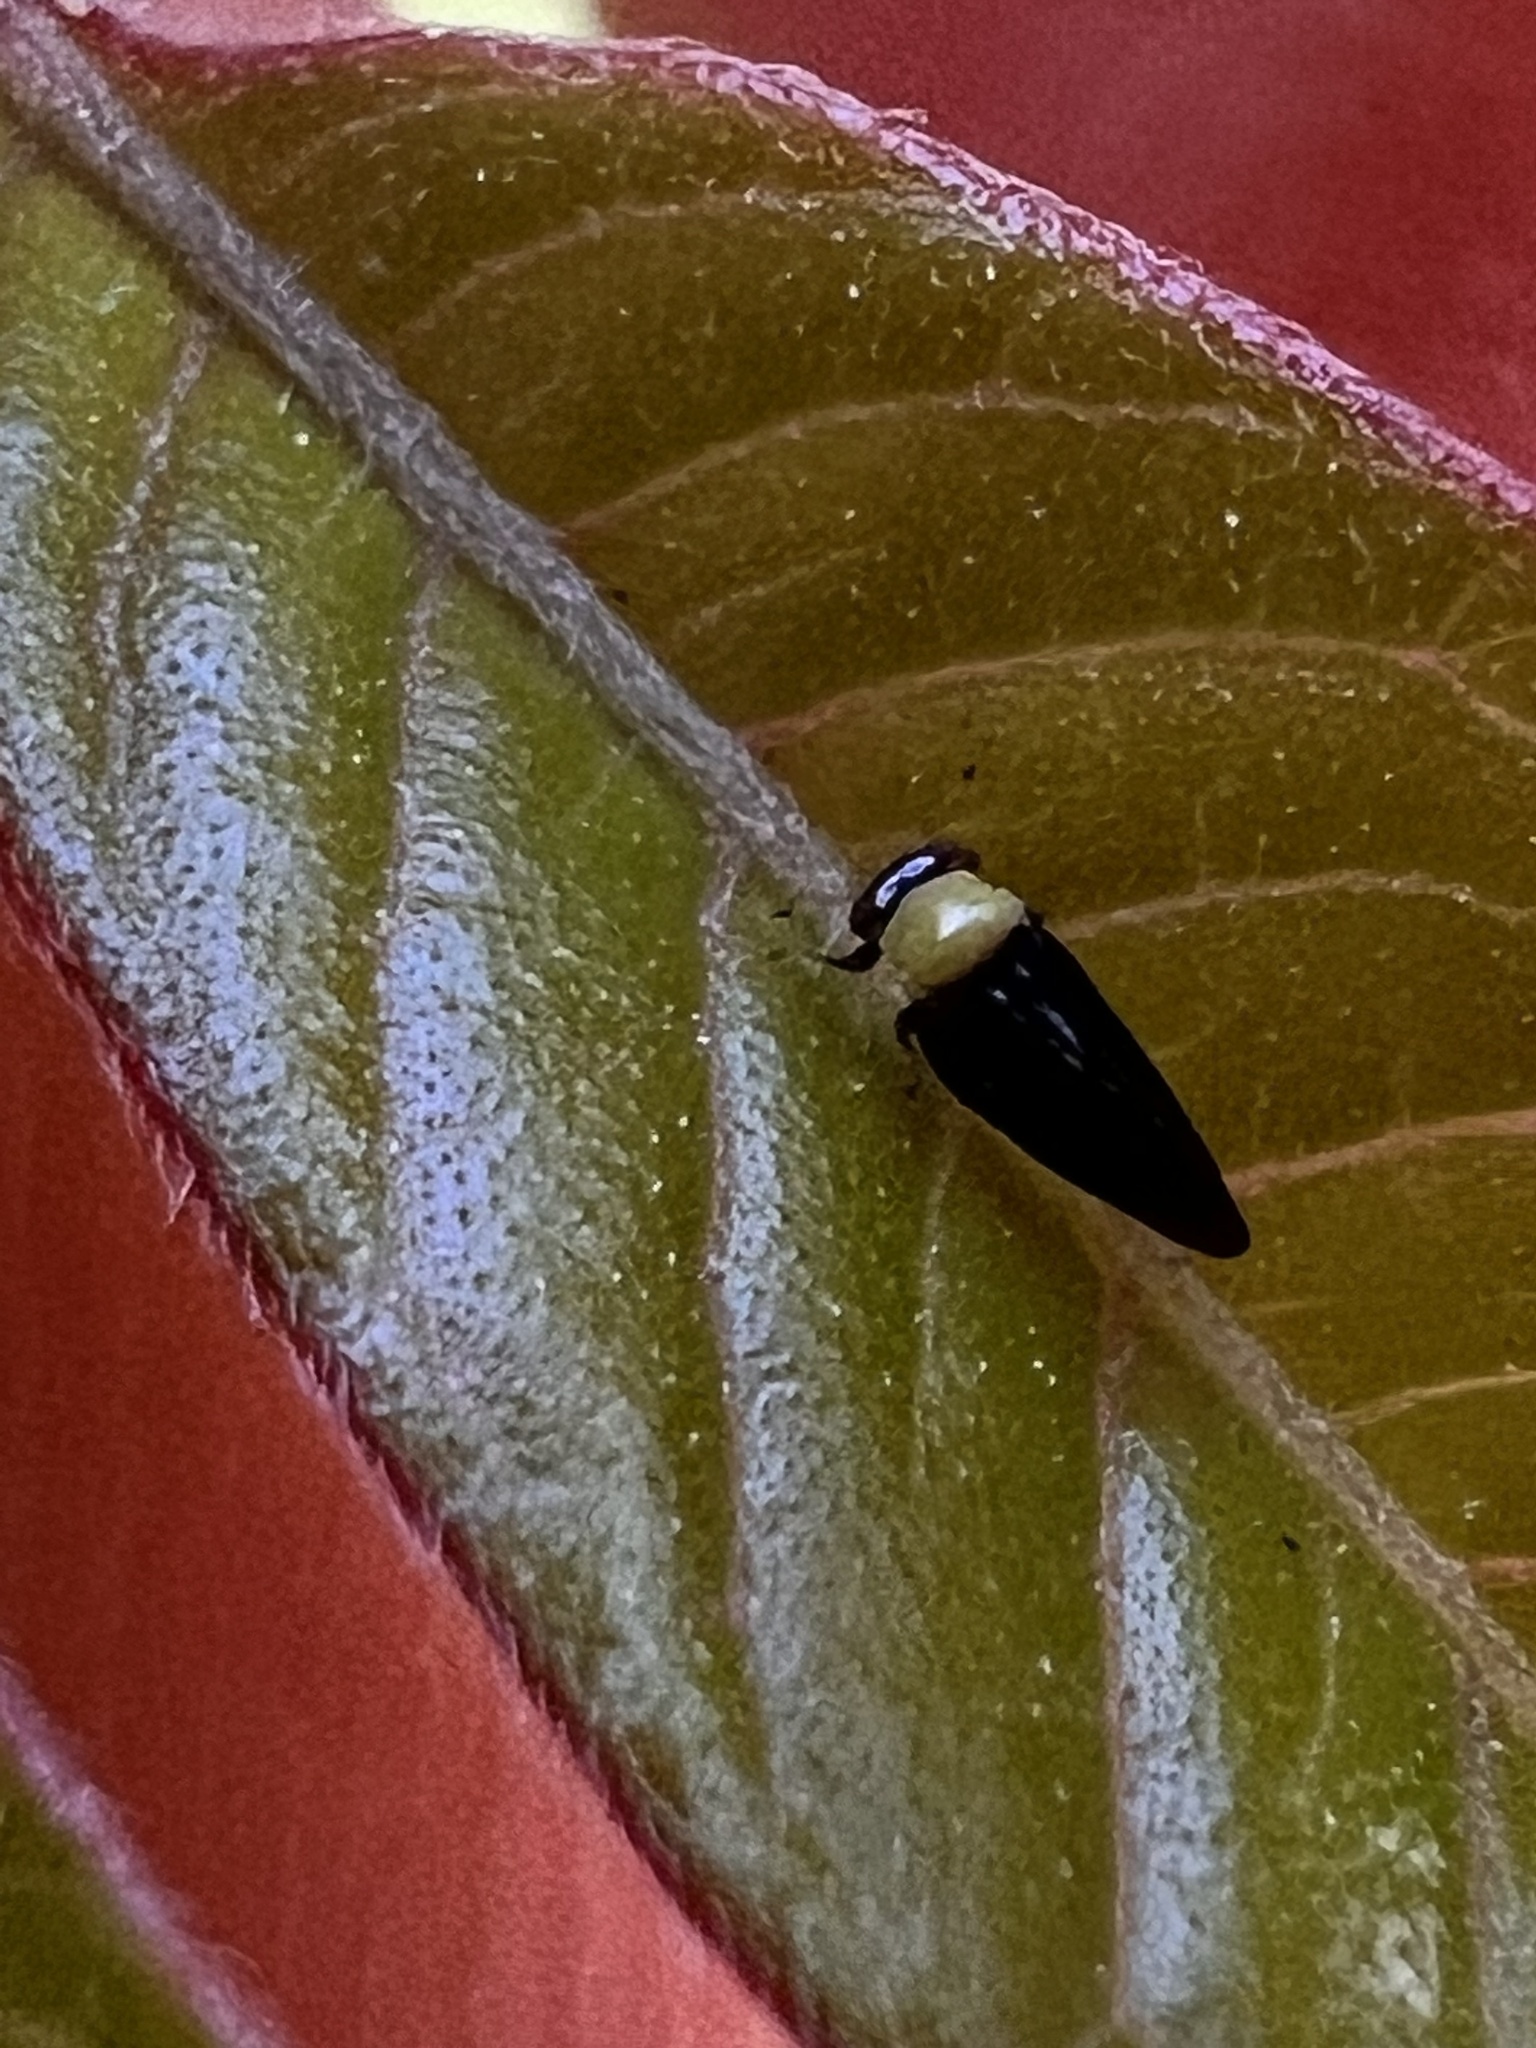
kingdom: Animalia
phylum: Arthropoda
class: Insecta
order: Hemiptera
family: Calophyidae
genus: Calophya
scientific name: Calophya nigripennis
